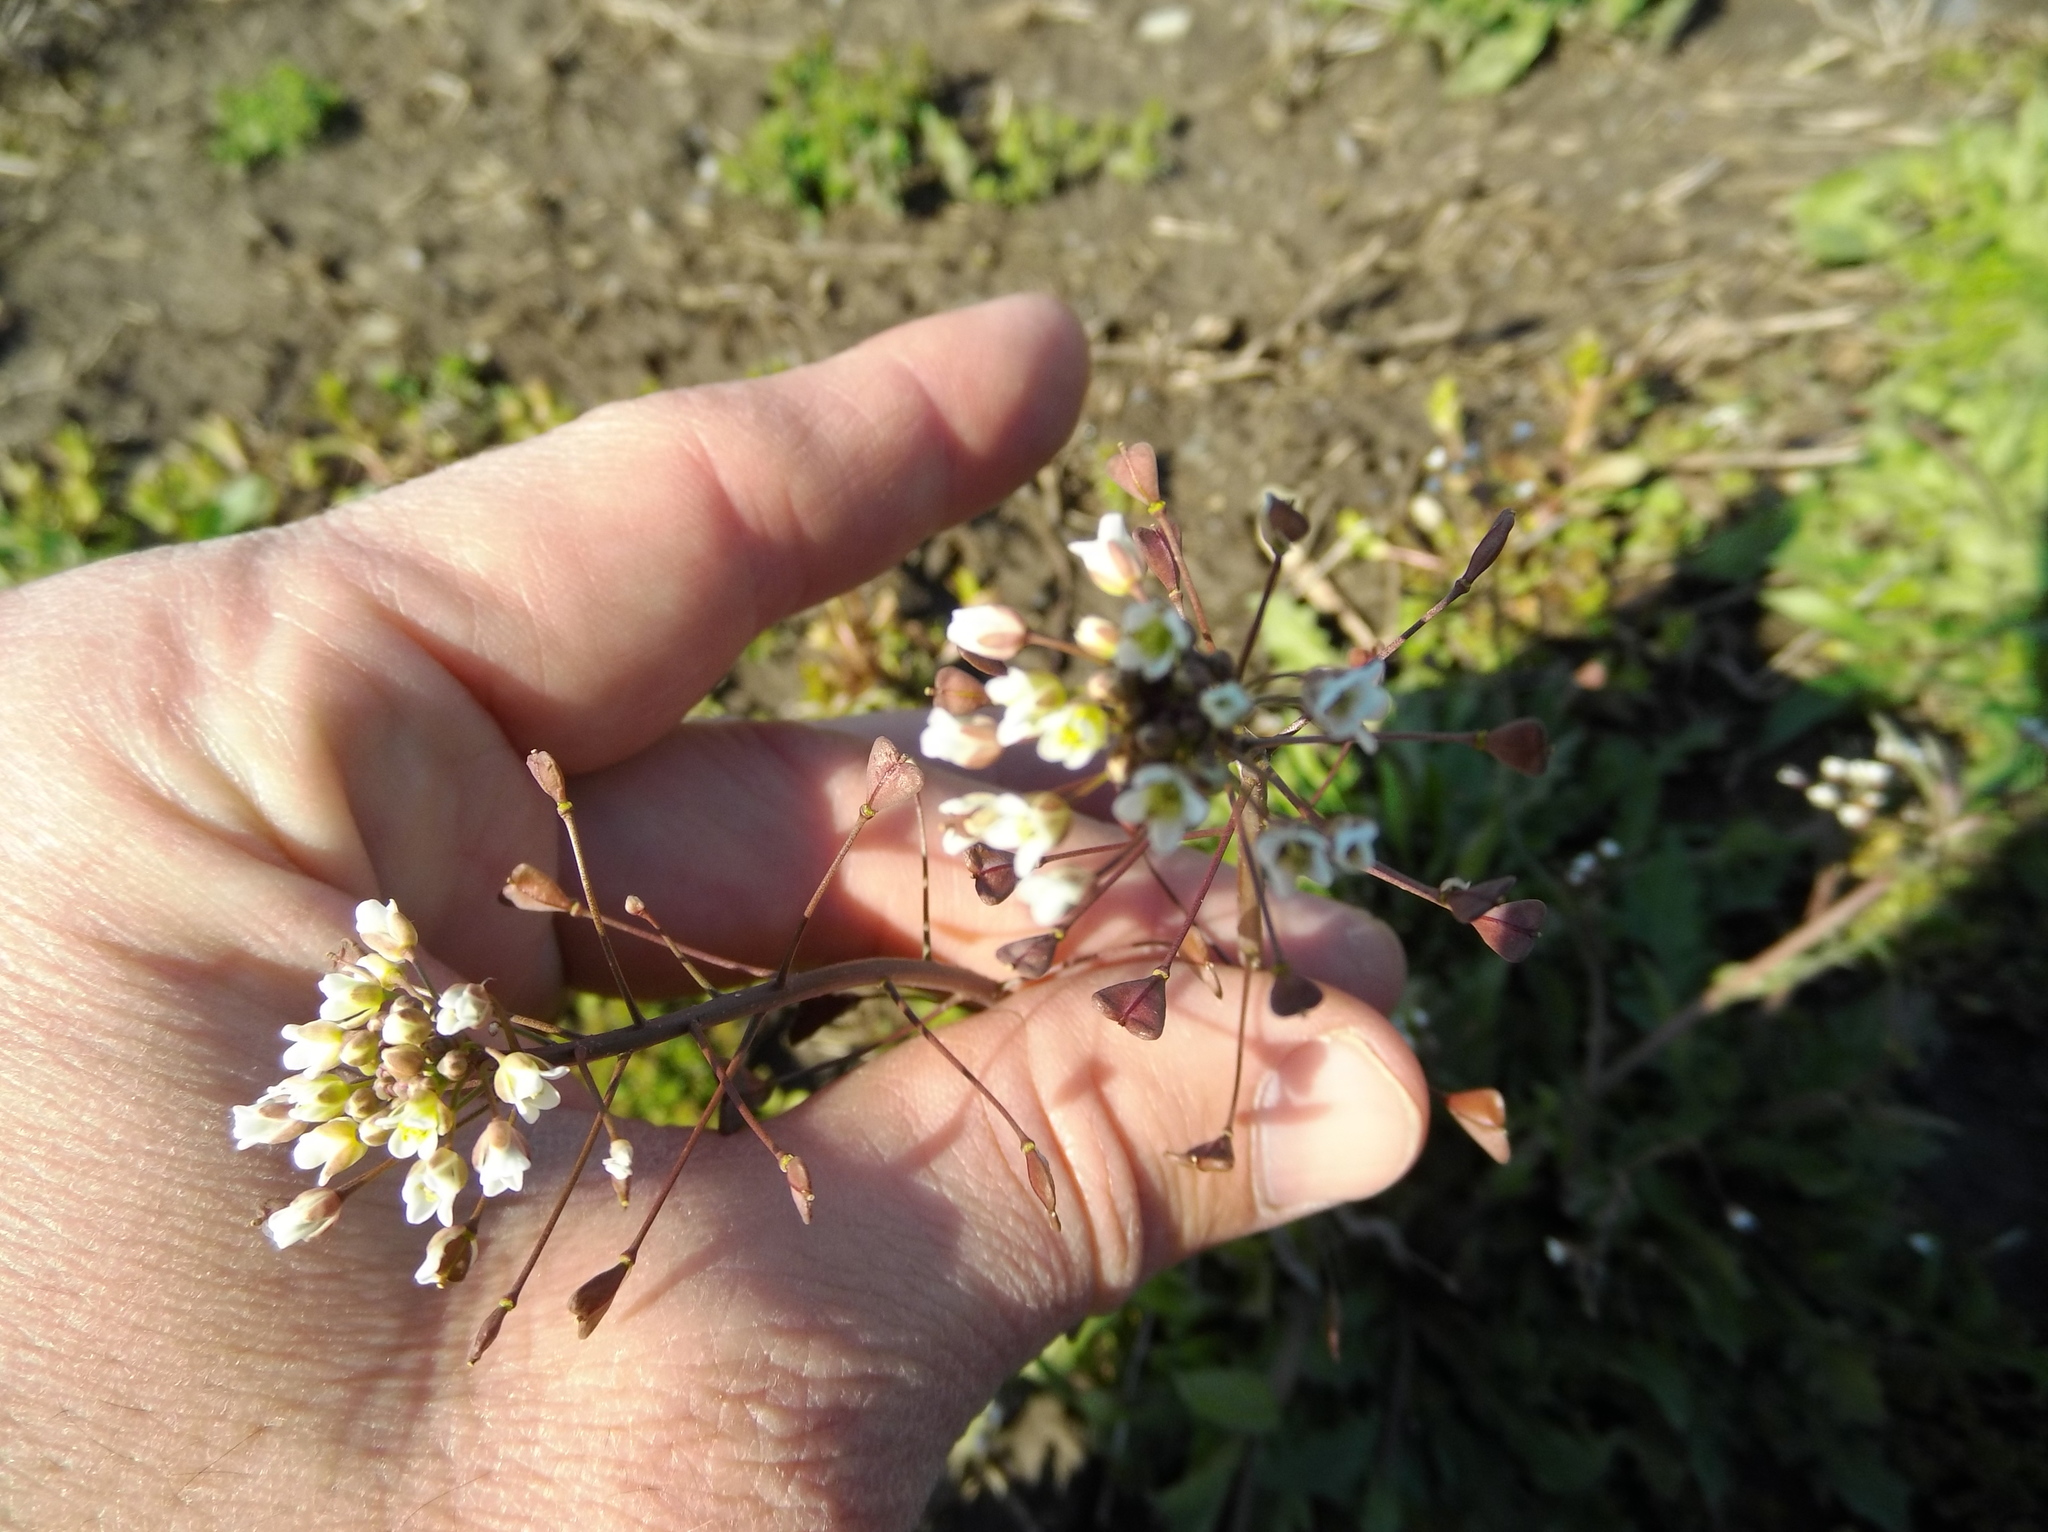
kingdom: Plantae
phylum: Tracheophyta
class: Magnoliopsida
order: Brassicales
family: Brassicaceae
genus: Capsella
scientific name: Capsella bursa-pastoris
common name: Shepherd's purse
